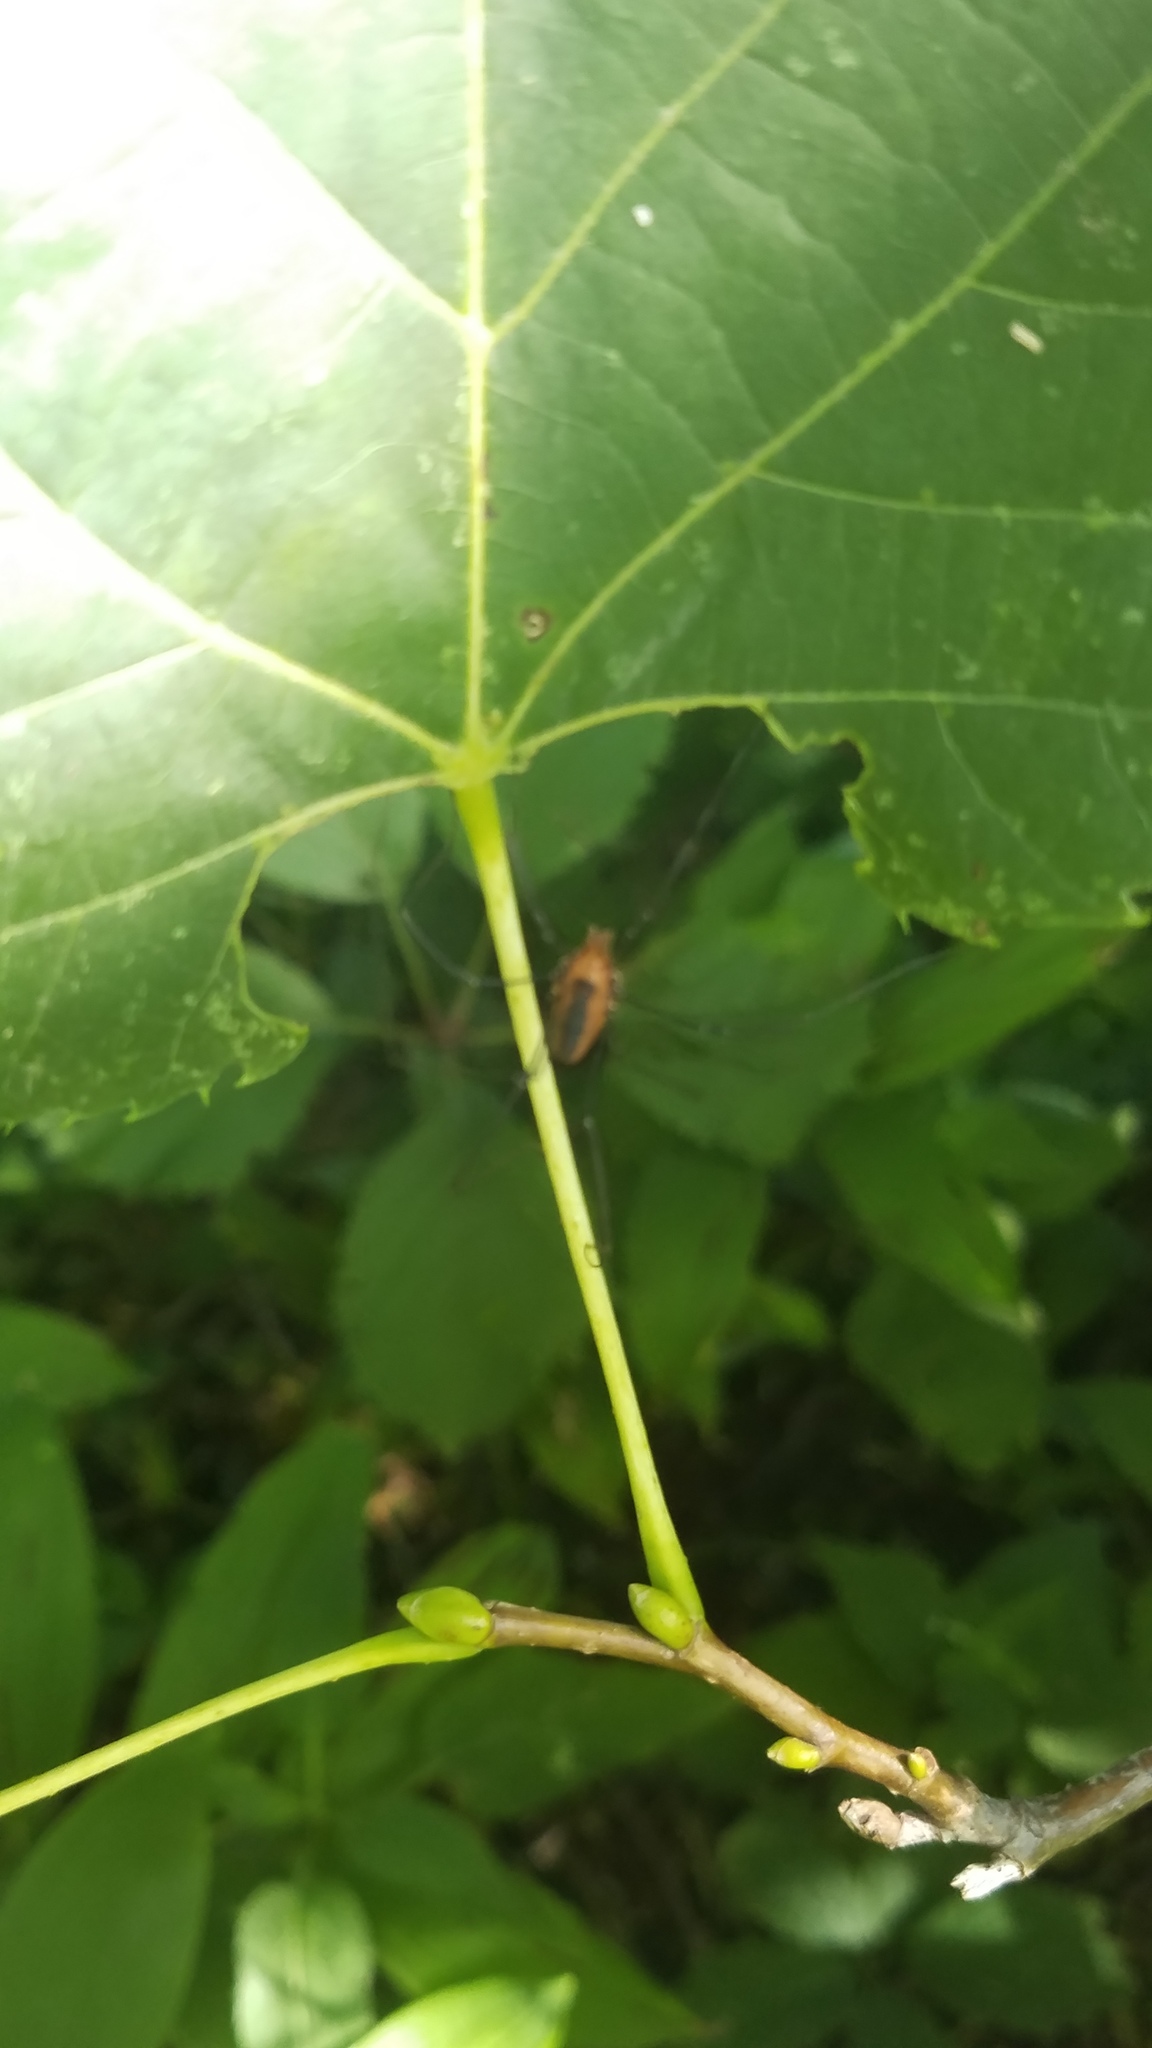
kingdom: Animalia
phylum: Arthropoda
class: Arachnida
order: Opiliones
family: Sclerosomatidae
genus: Leiobunum
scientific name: Leiobunum vittatum
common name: Eastern harvestman
